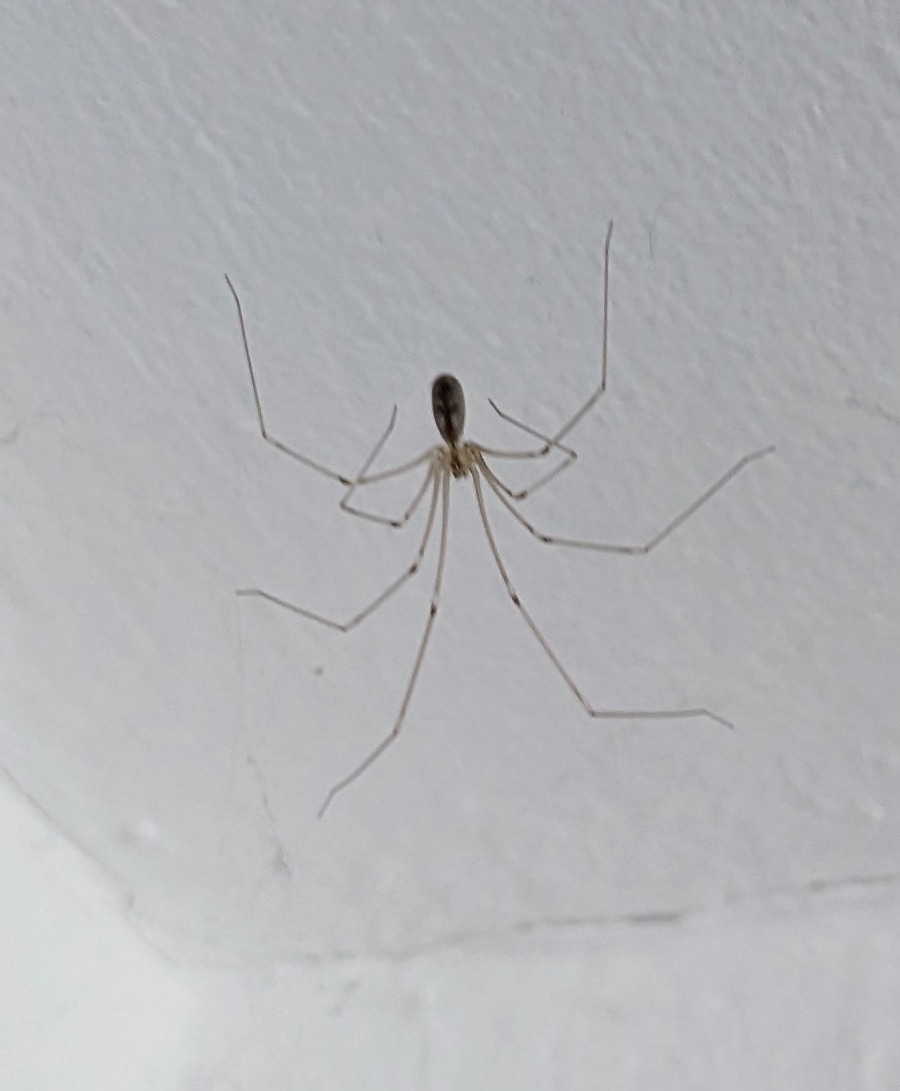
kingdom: Animalia
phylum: Arthropoda
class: Arachnida
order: Araneae
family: Pholcidae
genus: Pholcus
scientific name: Pholcus phalangioides
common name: Longbodied cellar spider
